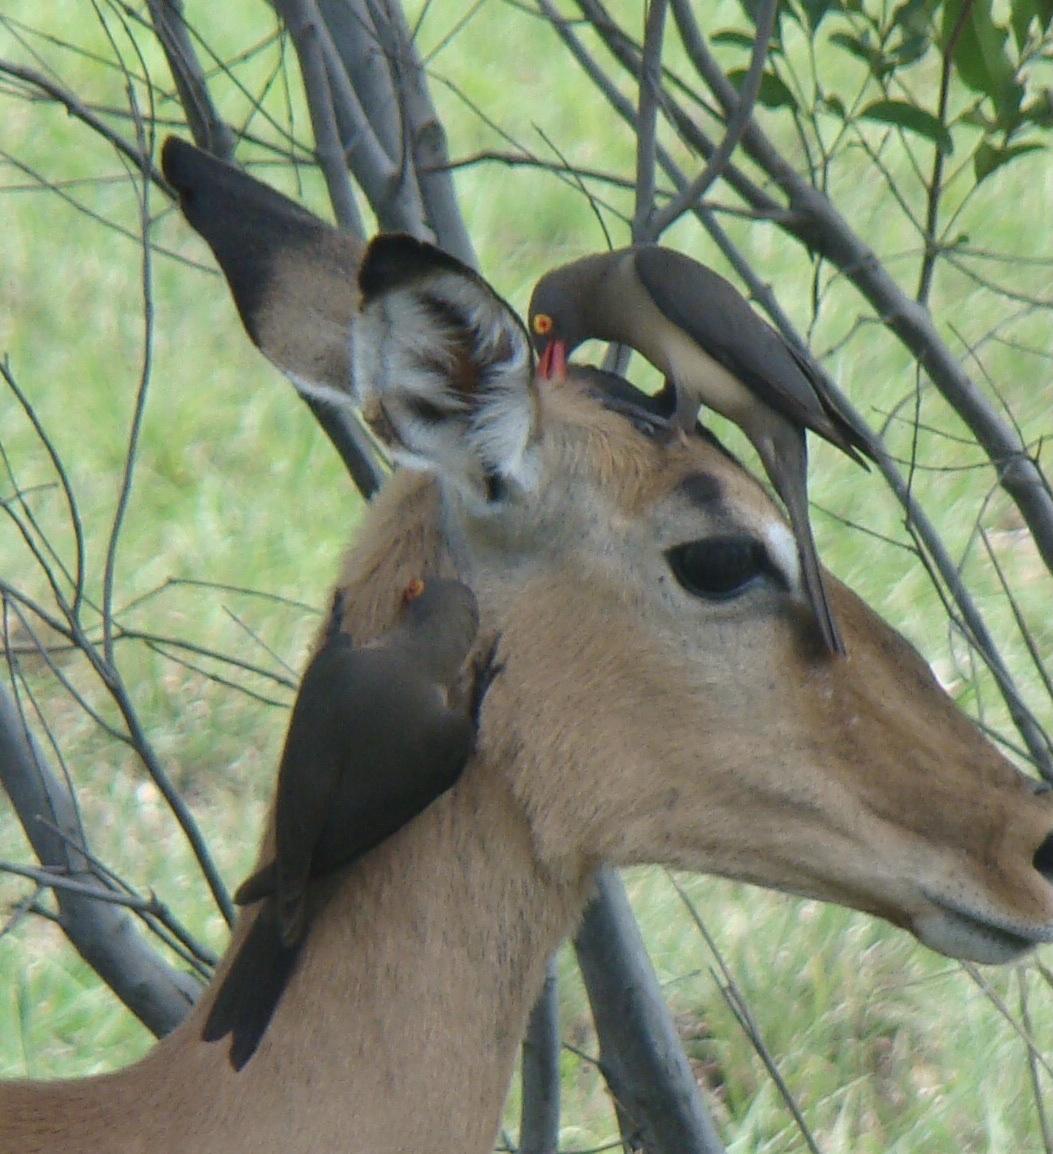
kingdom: Animalia
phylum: Chordata
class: Aves
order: Passeriformes
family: Buphagidae
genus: Buphagus
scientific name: Buphagus erythrorhynchus
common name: Red-billed oxpecker
